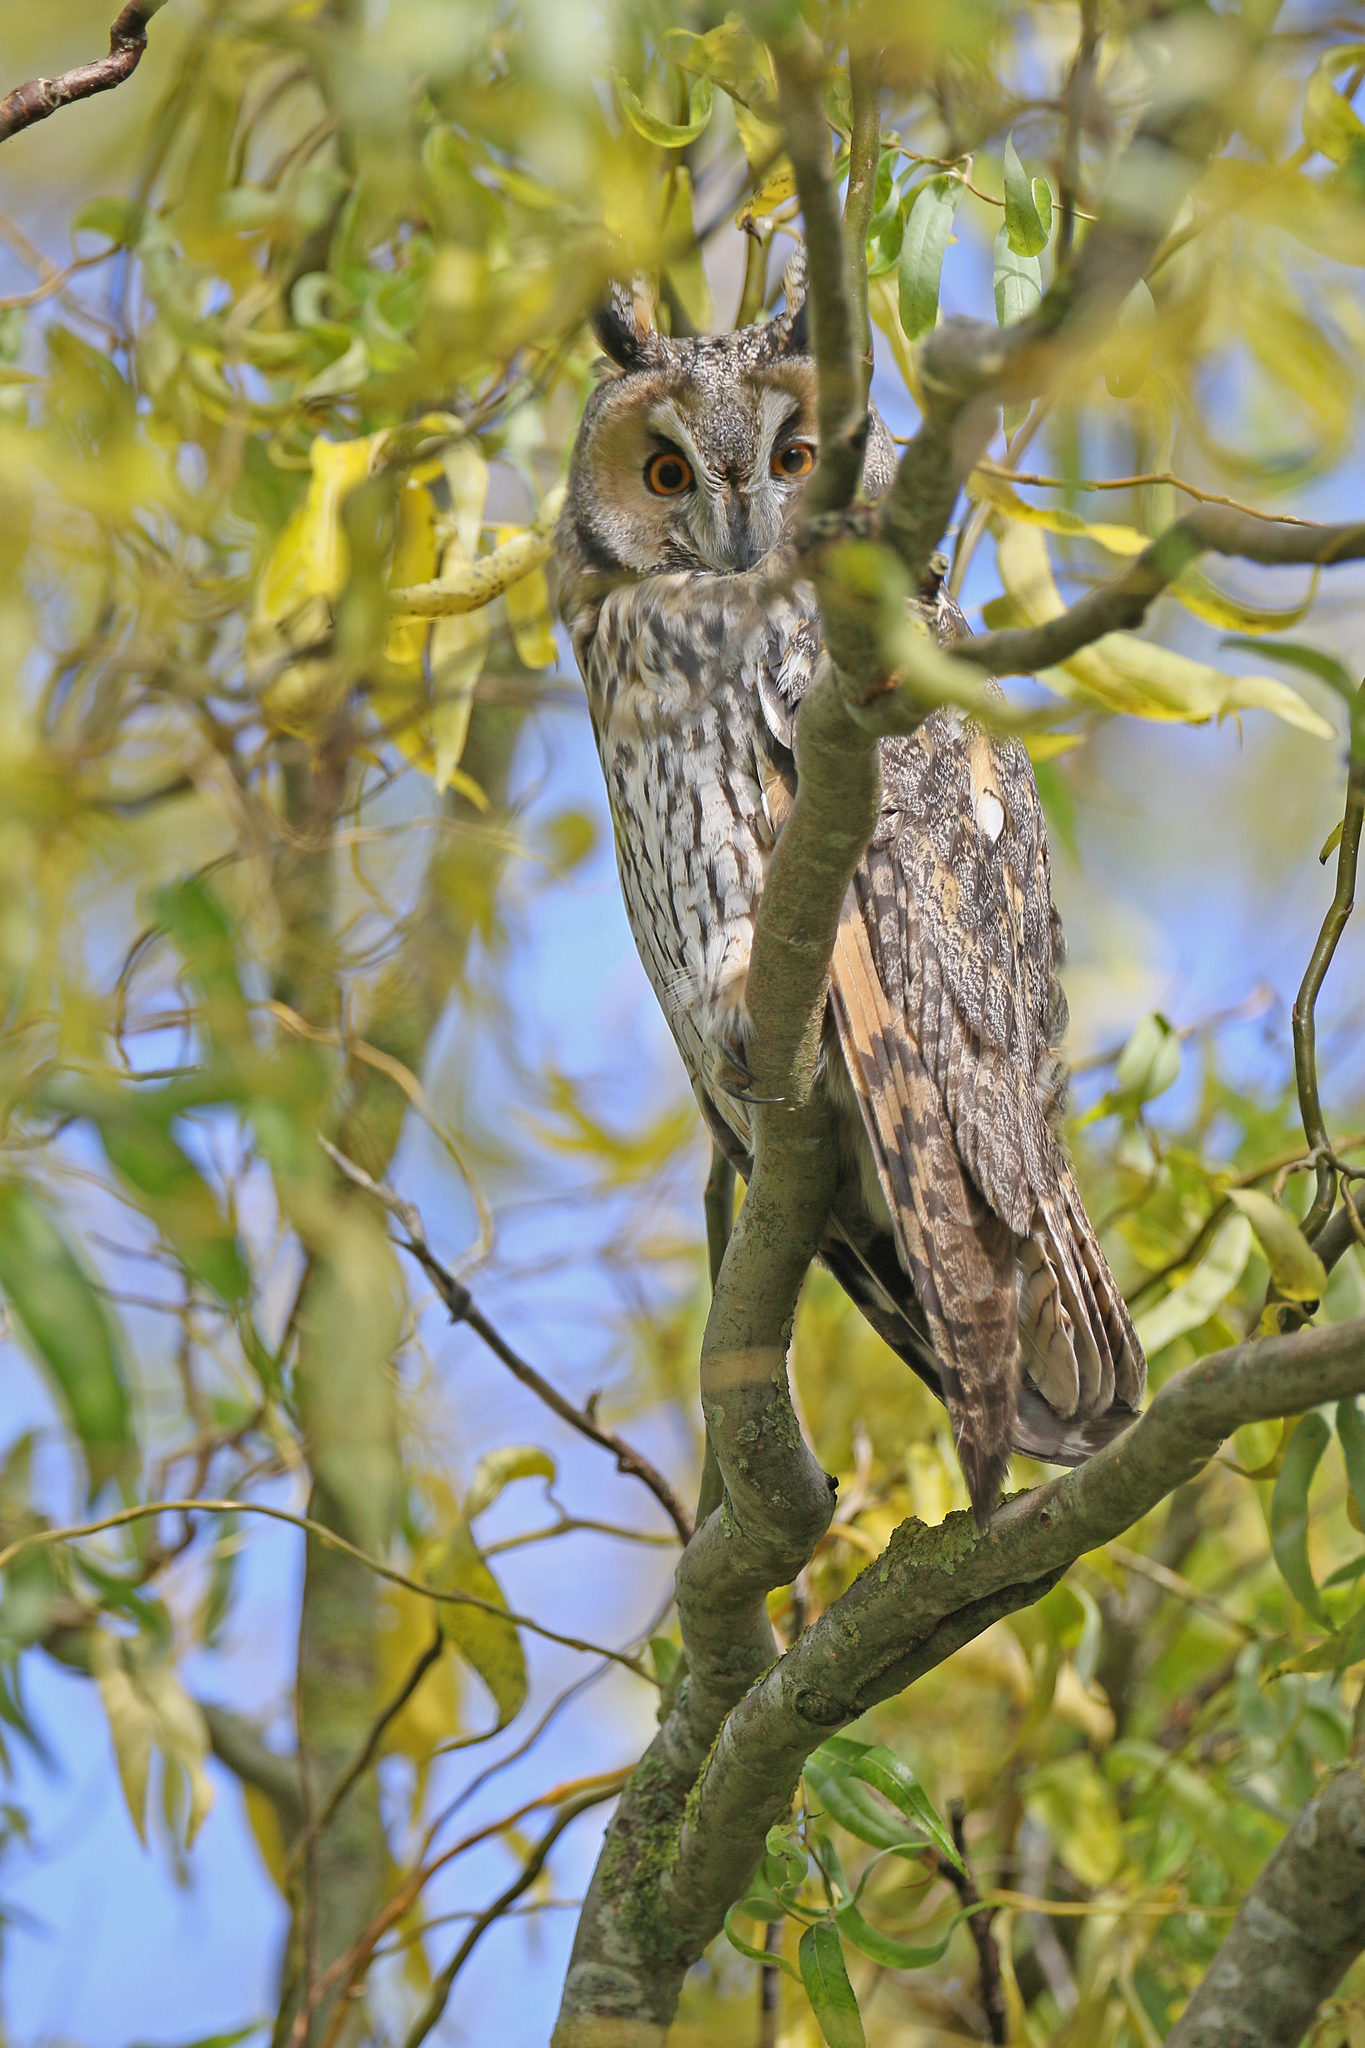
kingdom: Animalia
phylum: Chordata
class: Aves
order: Strigiformes
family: Strigidae
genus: Asio
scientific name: Asio otus
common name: Long-eared owl
